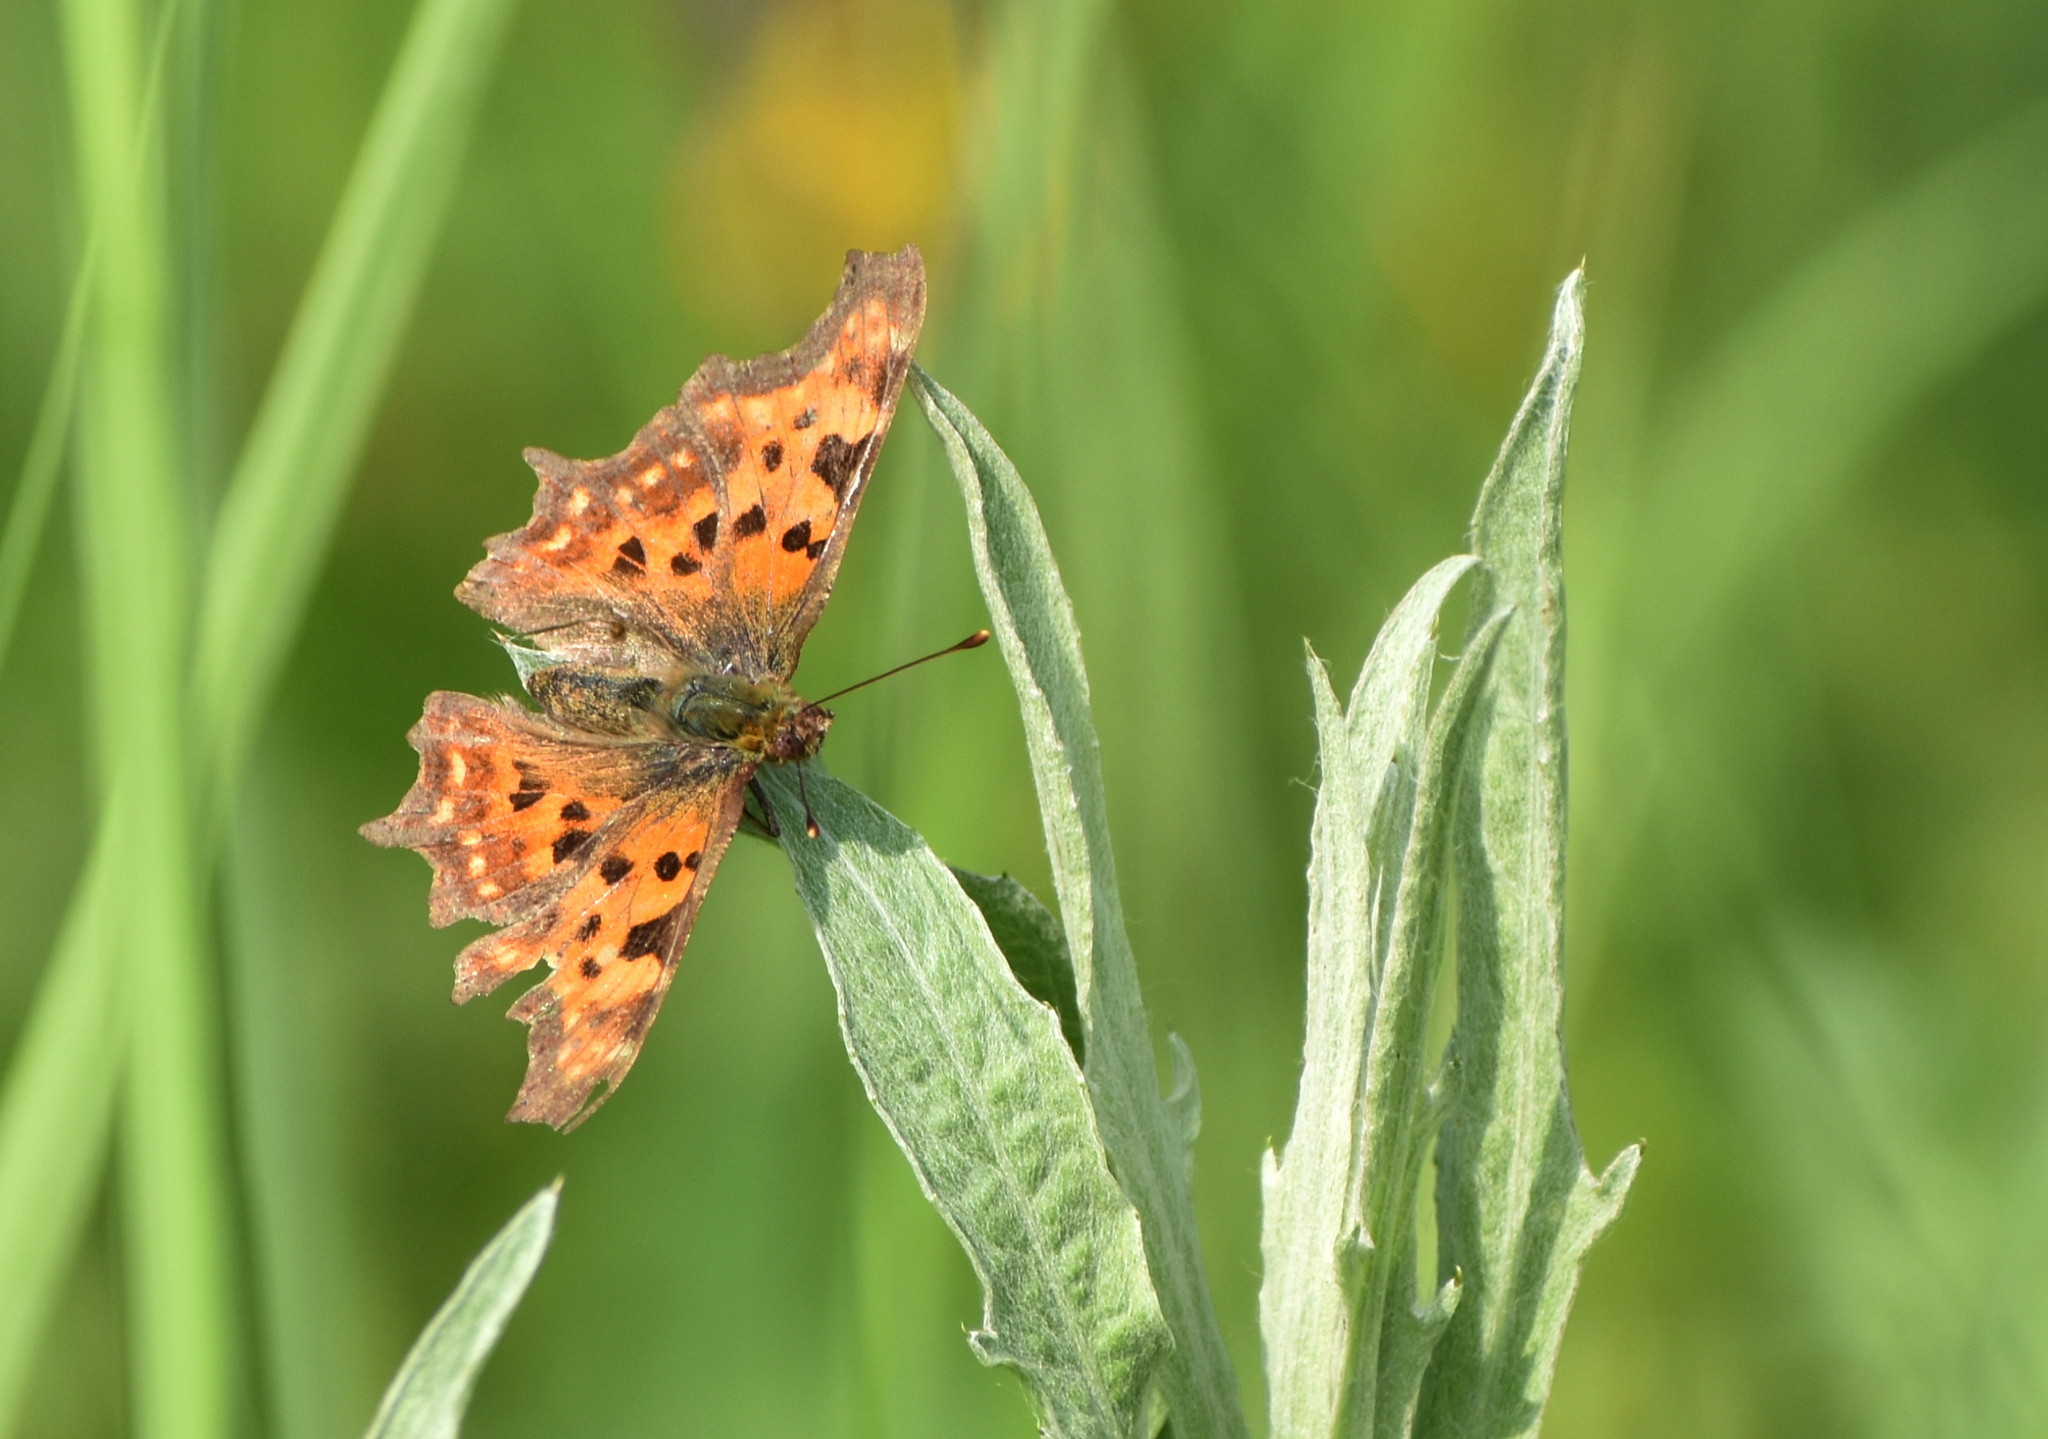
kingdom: Animalia
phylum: Arthropoda
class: Insecta
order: Lepidoptera
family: Nymphalidae
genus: Polygonia
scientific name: Polygonia c-album
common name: Comma
